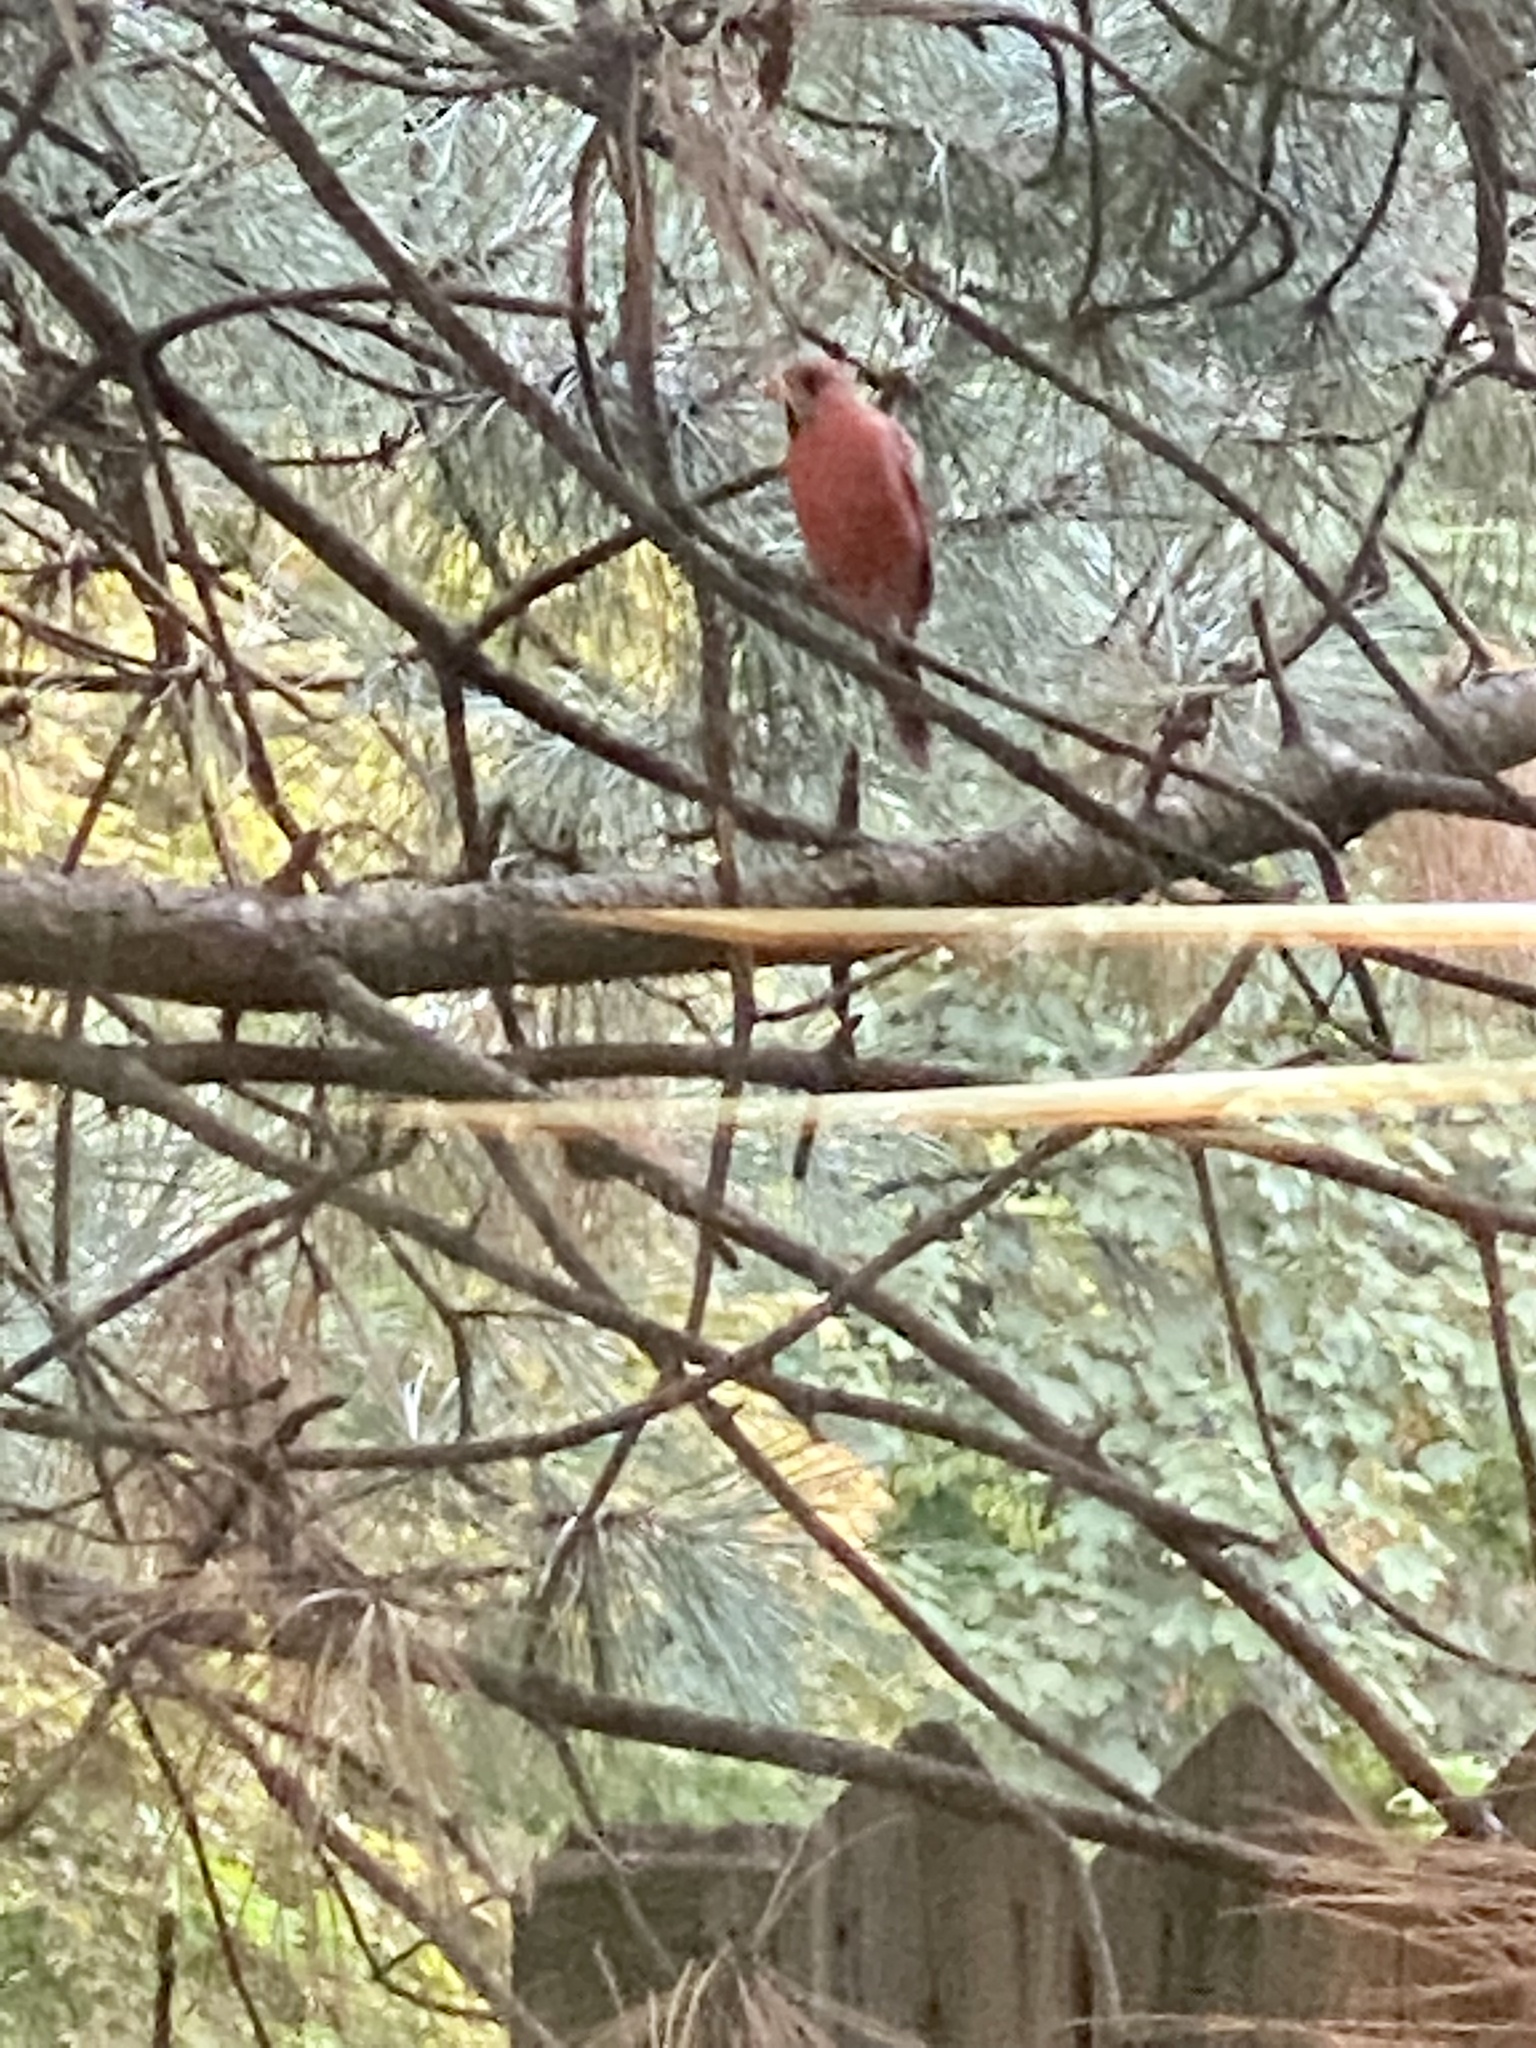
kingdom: Animalia
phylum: Chordata
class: Aves
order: Passeriformes
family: Cardinalidae
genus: Cardinalis
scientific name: Cardinalis cardinalis
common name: Northern cardinal
